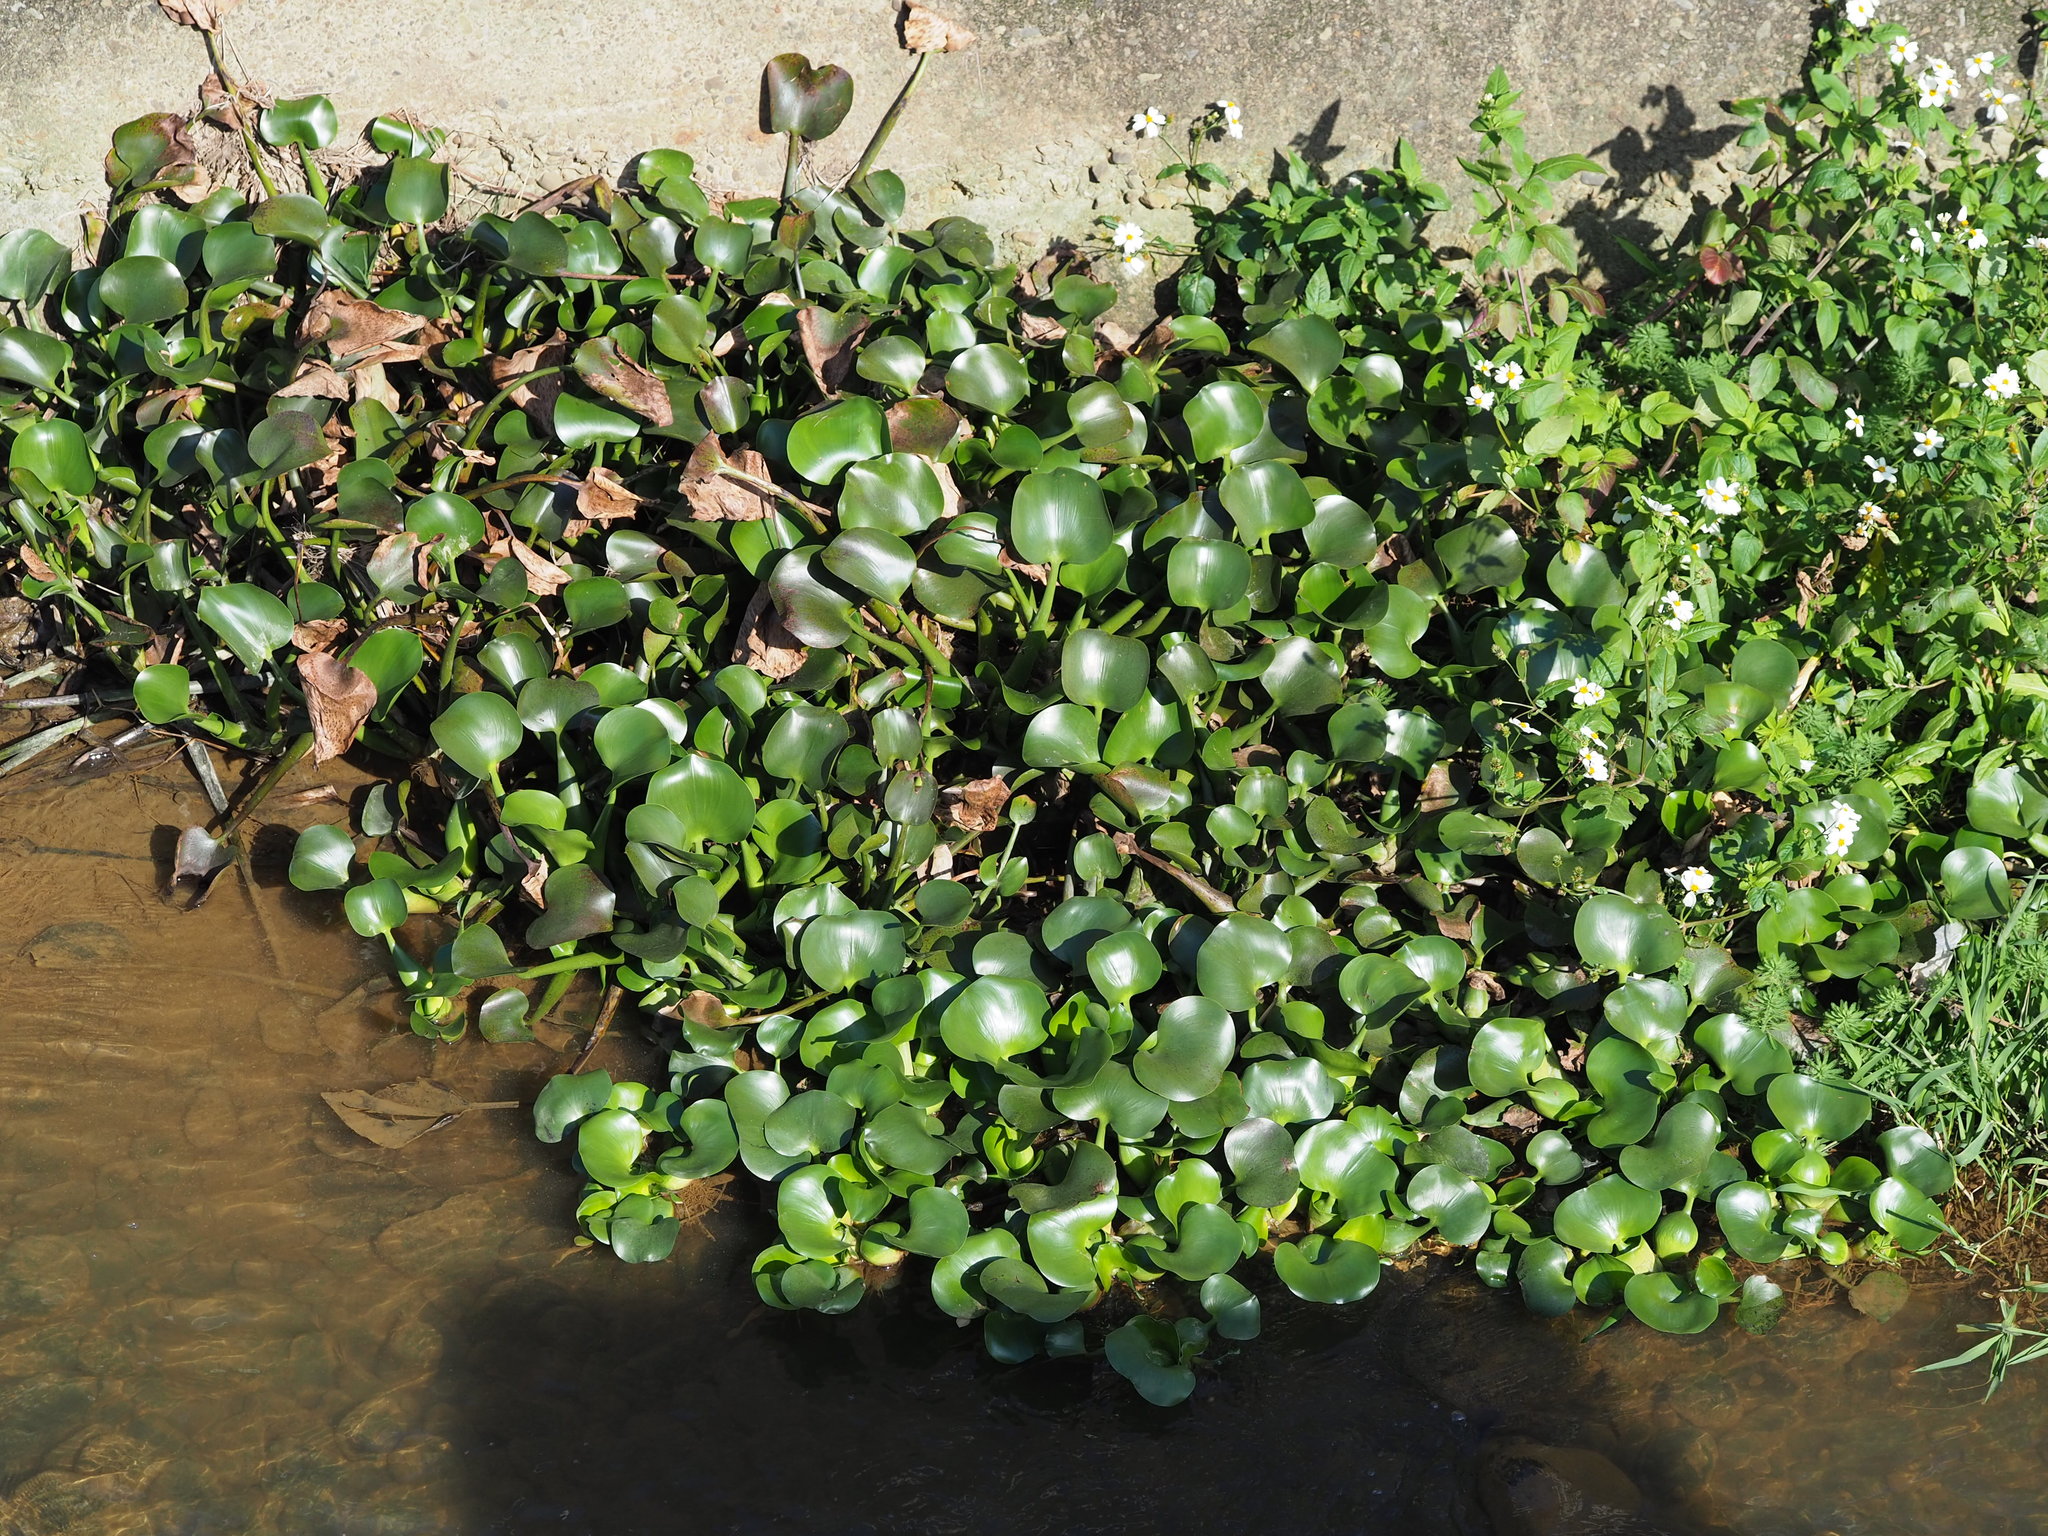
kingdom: Plantae
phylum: Tracheophyta
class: Liliopsida
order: Commelinales
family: Pontederiaceae
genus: Pontederia
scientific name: Pontederia crassipes
